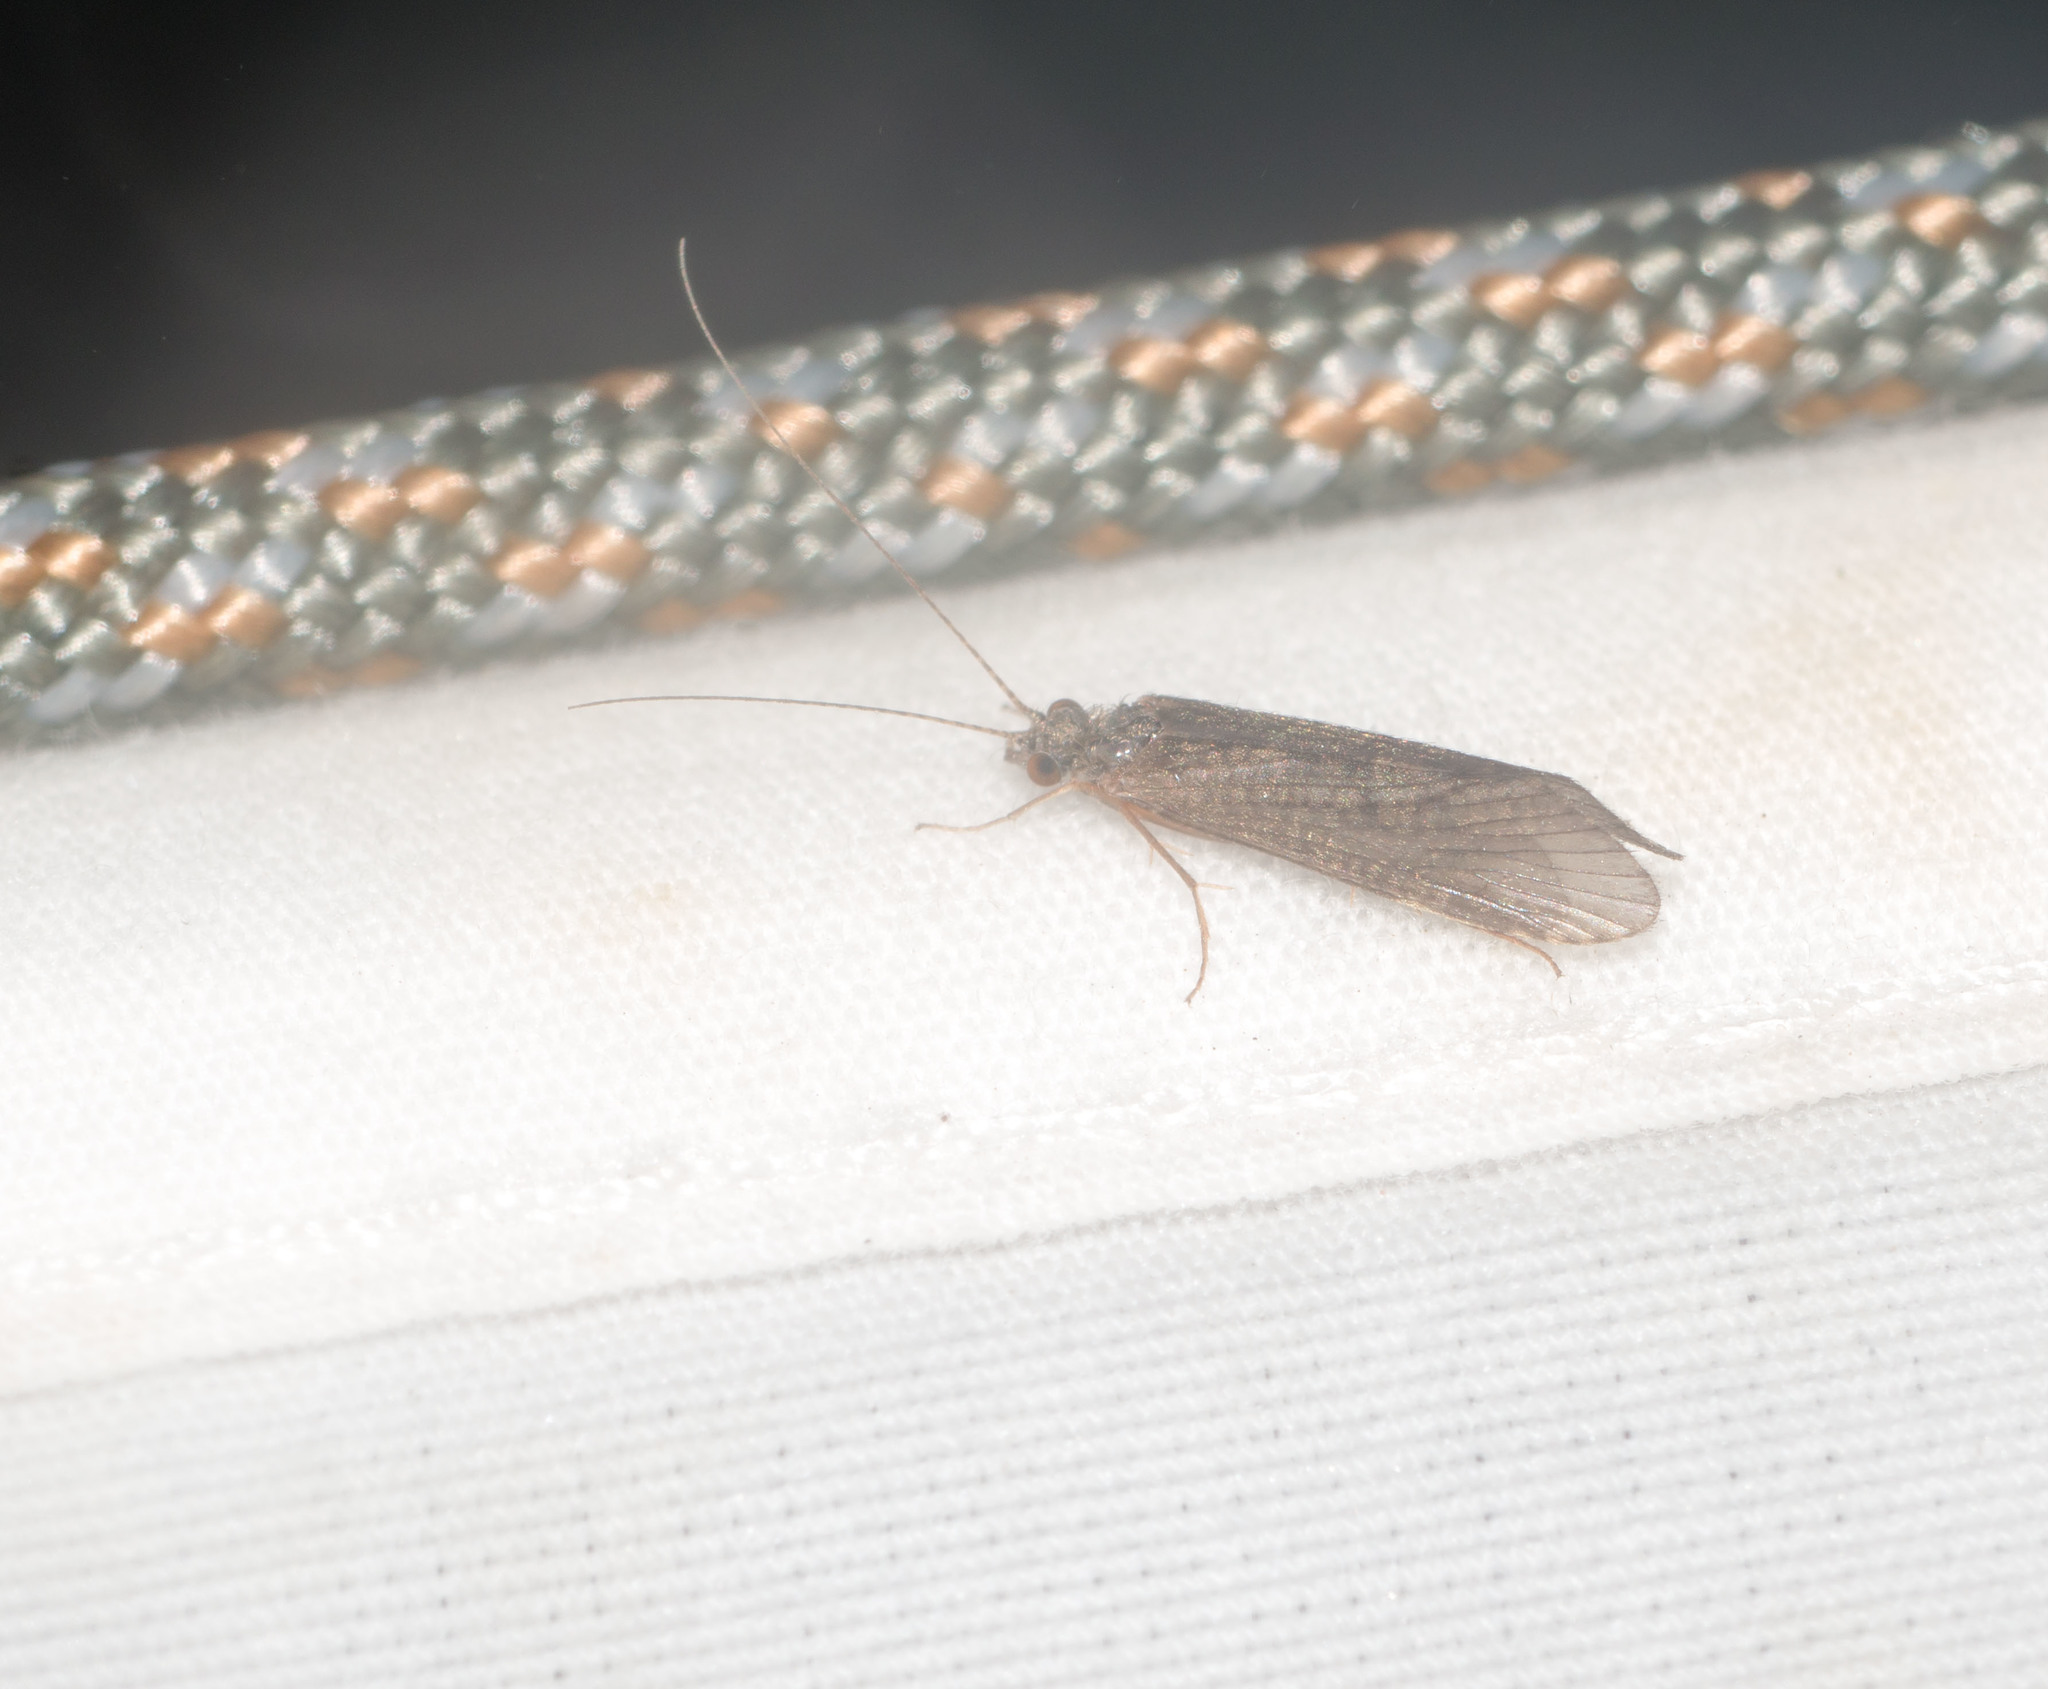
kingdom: Animalia
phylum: Arthropoda
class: Insecta
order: Trichoptera
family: Hydropsychidae
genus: Cheumatopsyche
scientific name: Cheumatopsyche analis
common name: Net-spinning caddisfly
